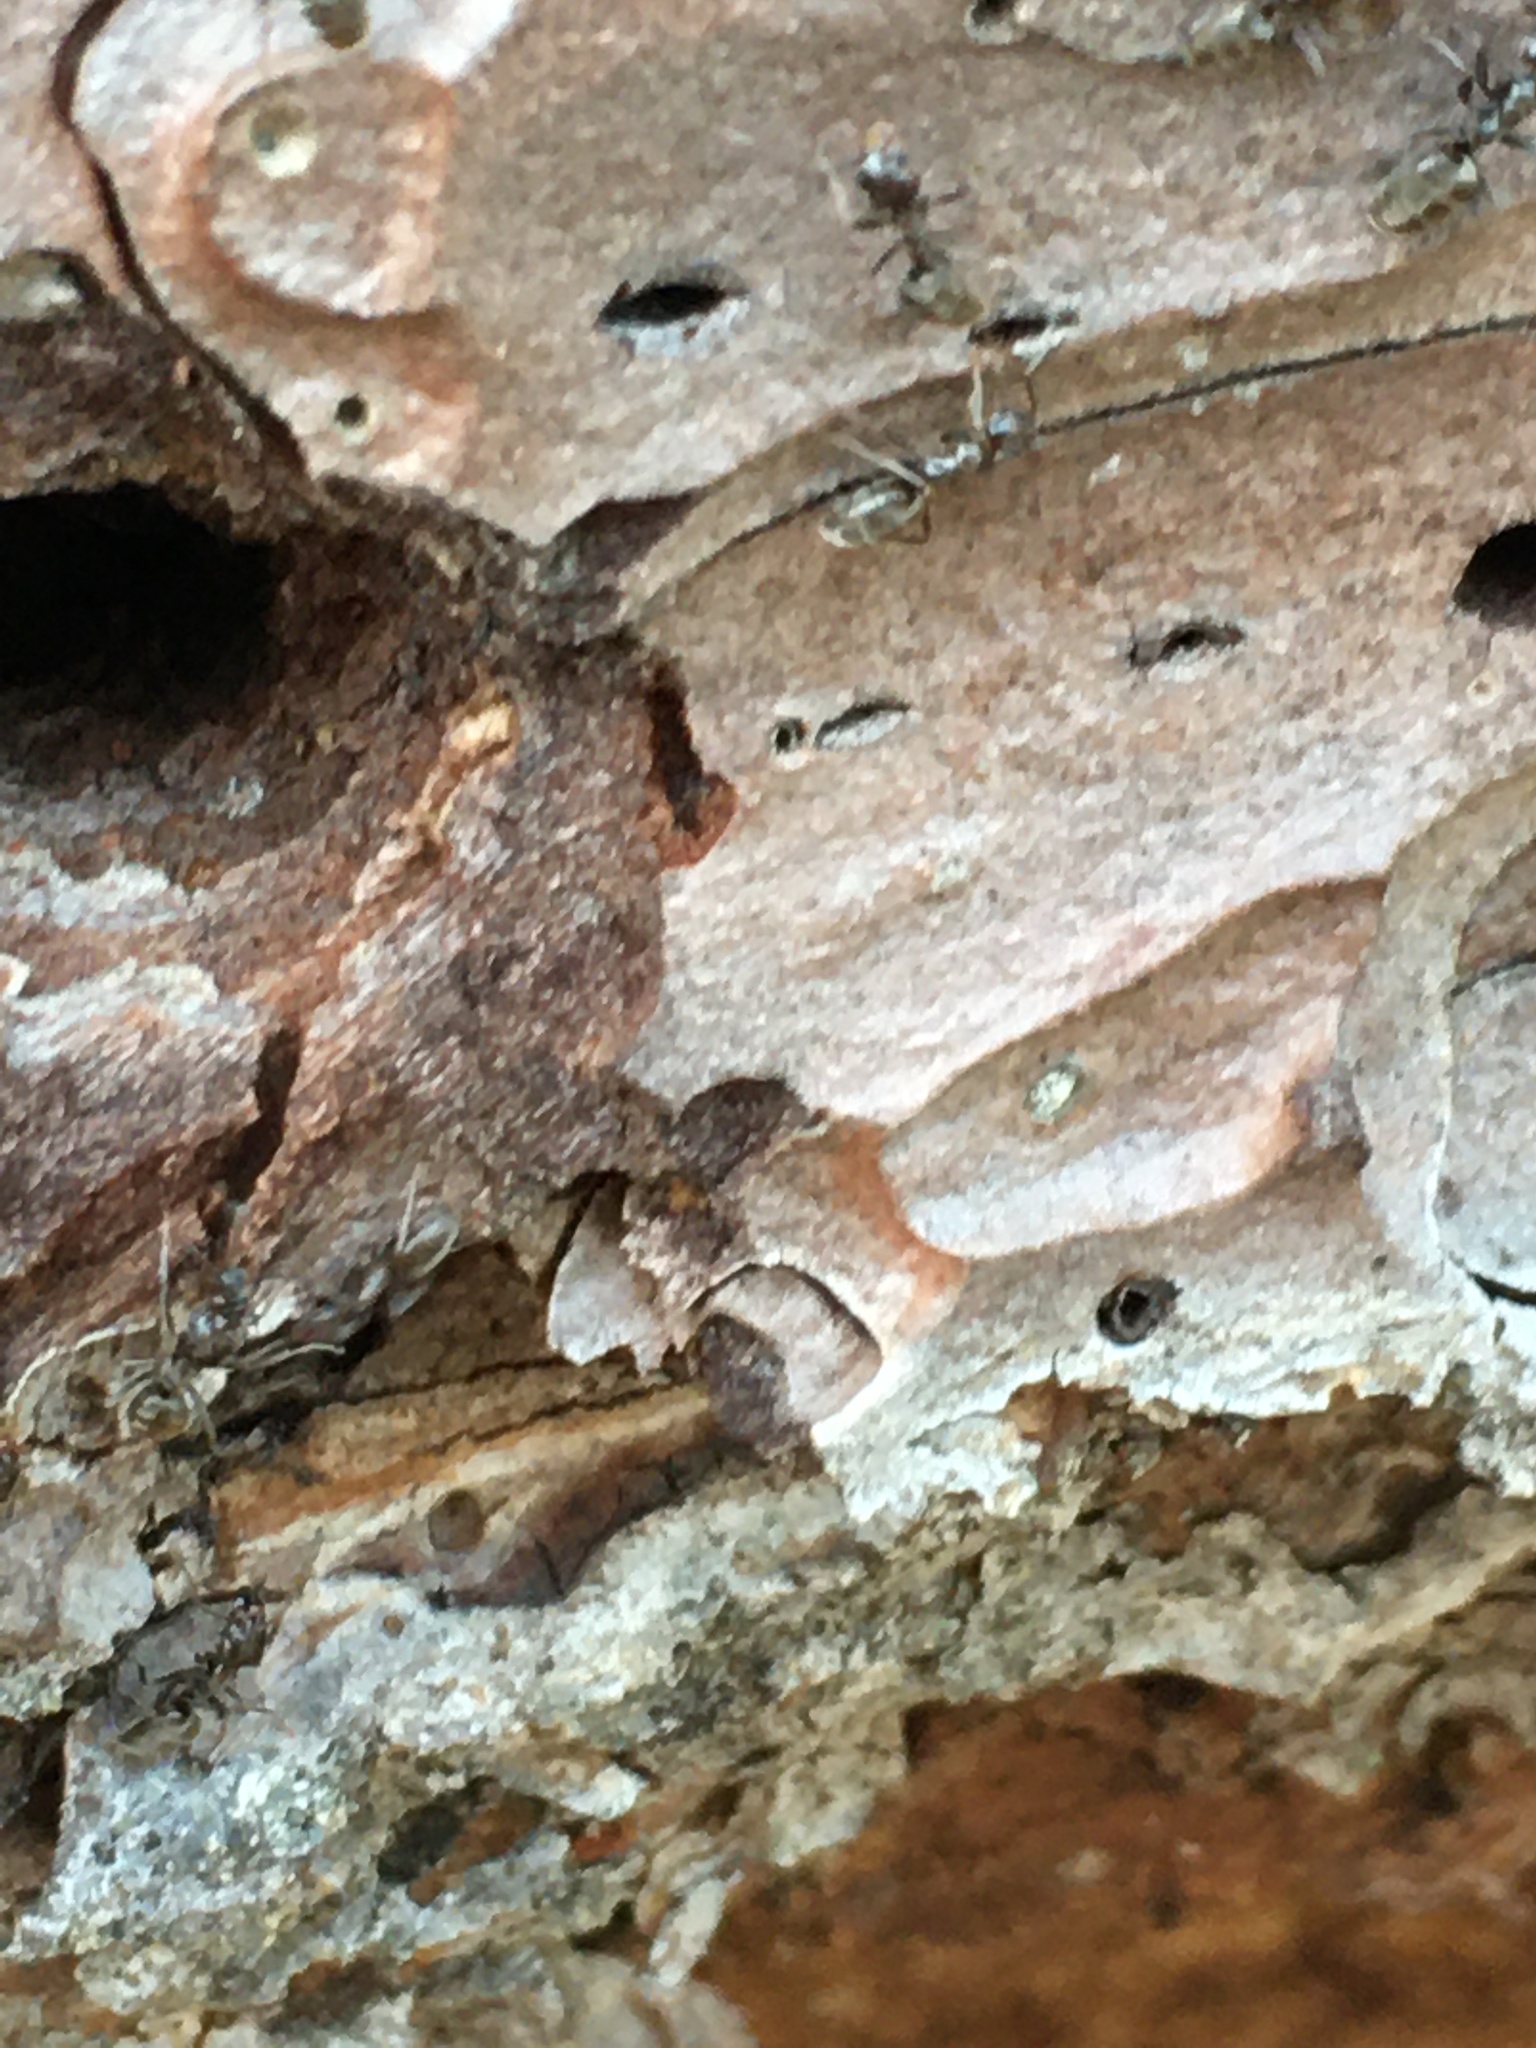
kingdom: Animalia
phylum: Arthropoda
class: Insecta
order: Hymenoptera
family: Formicidae
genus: Linepithema
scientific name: Linepithema humile
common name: Argentine ant
